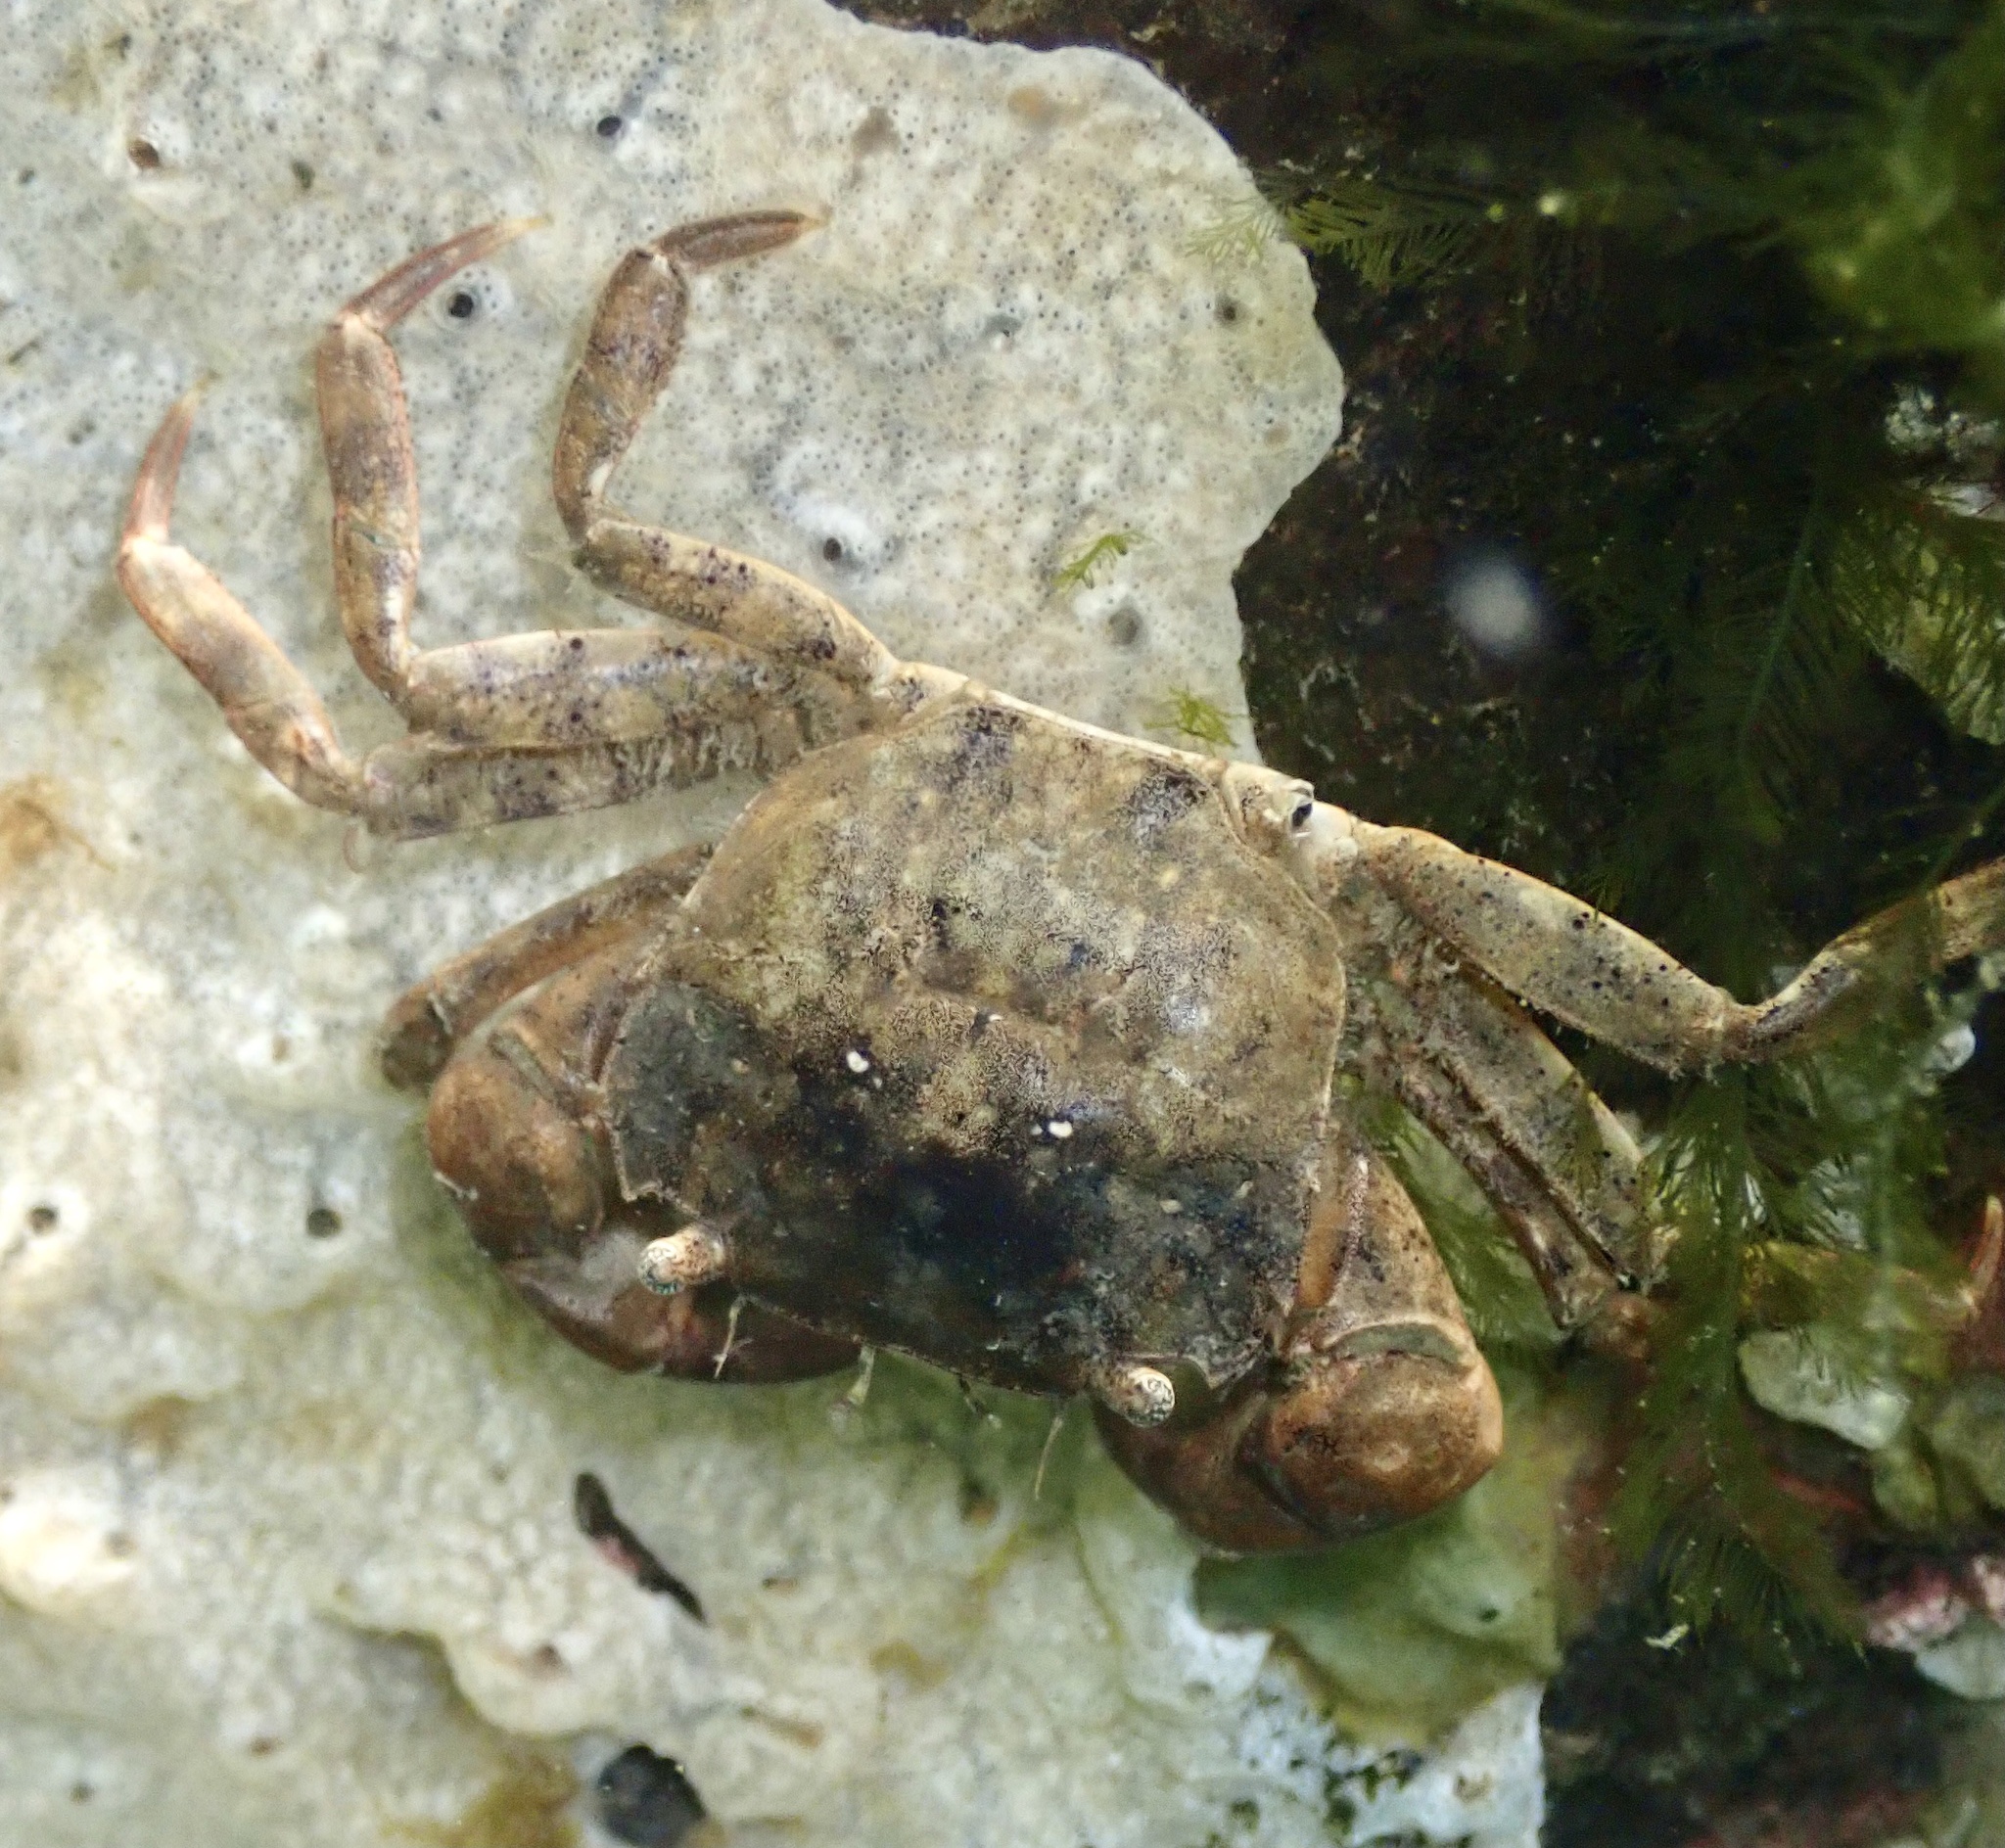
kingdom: Animalia
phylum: Arthropoda
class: Malacostraca
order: Decapoda
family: Varunidae
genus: Hemigrapsus
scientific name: Hemigrapsus takanoi
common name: Asian brush crab
